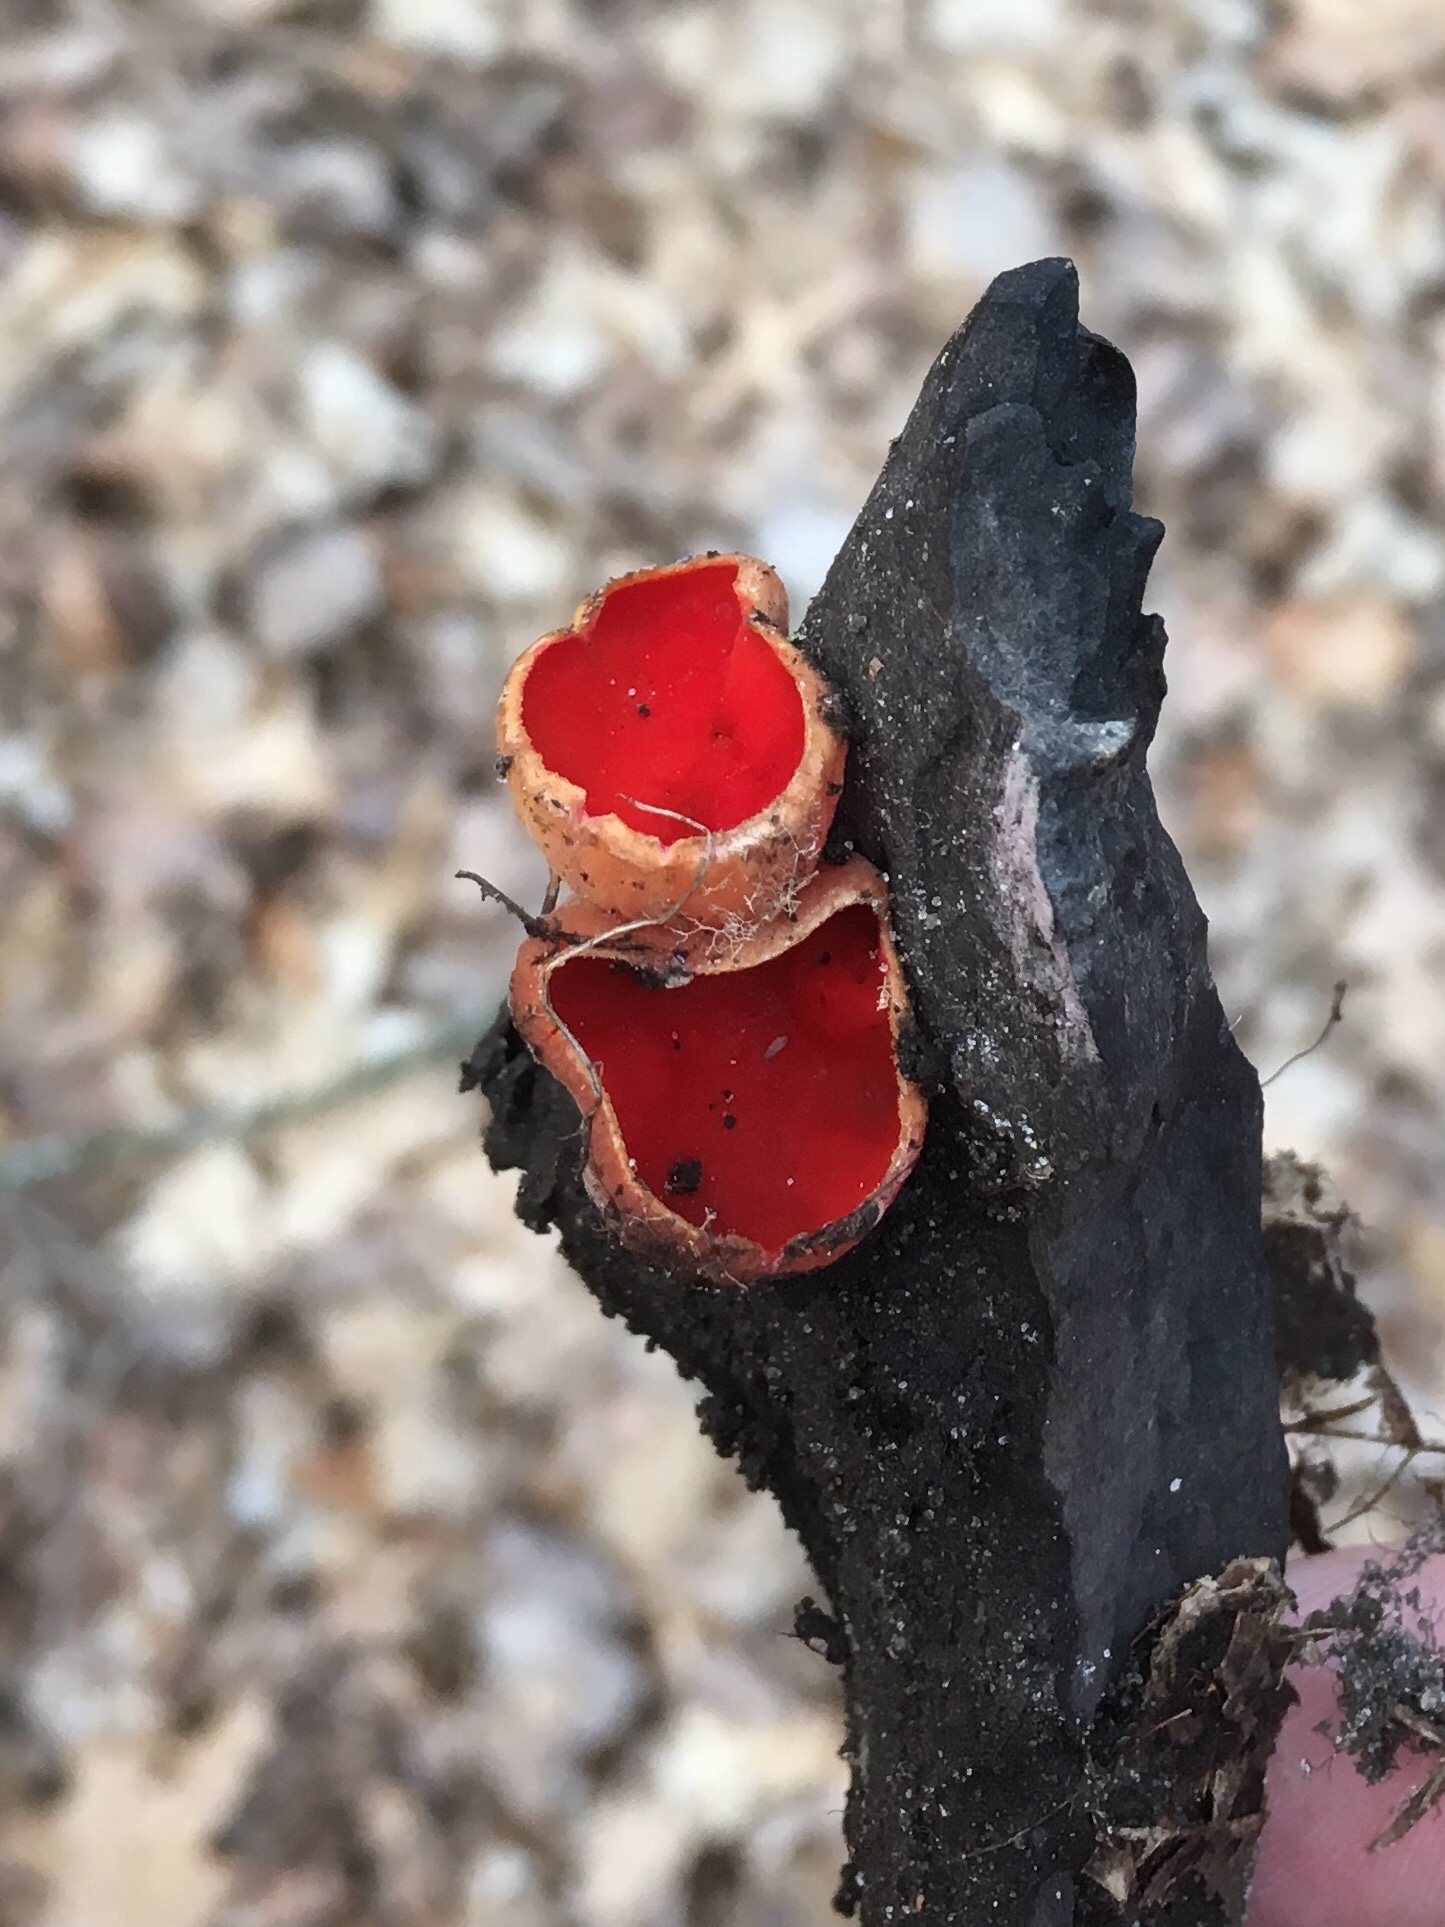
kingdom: Fungi
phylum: Ascomycota
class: Pezizomycetes
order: Pezizales
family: Sarcoscyphaceae
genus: Sarcoscypha
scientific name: Sarcoscypha
